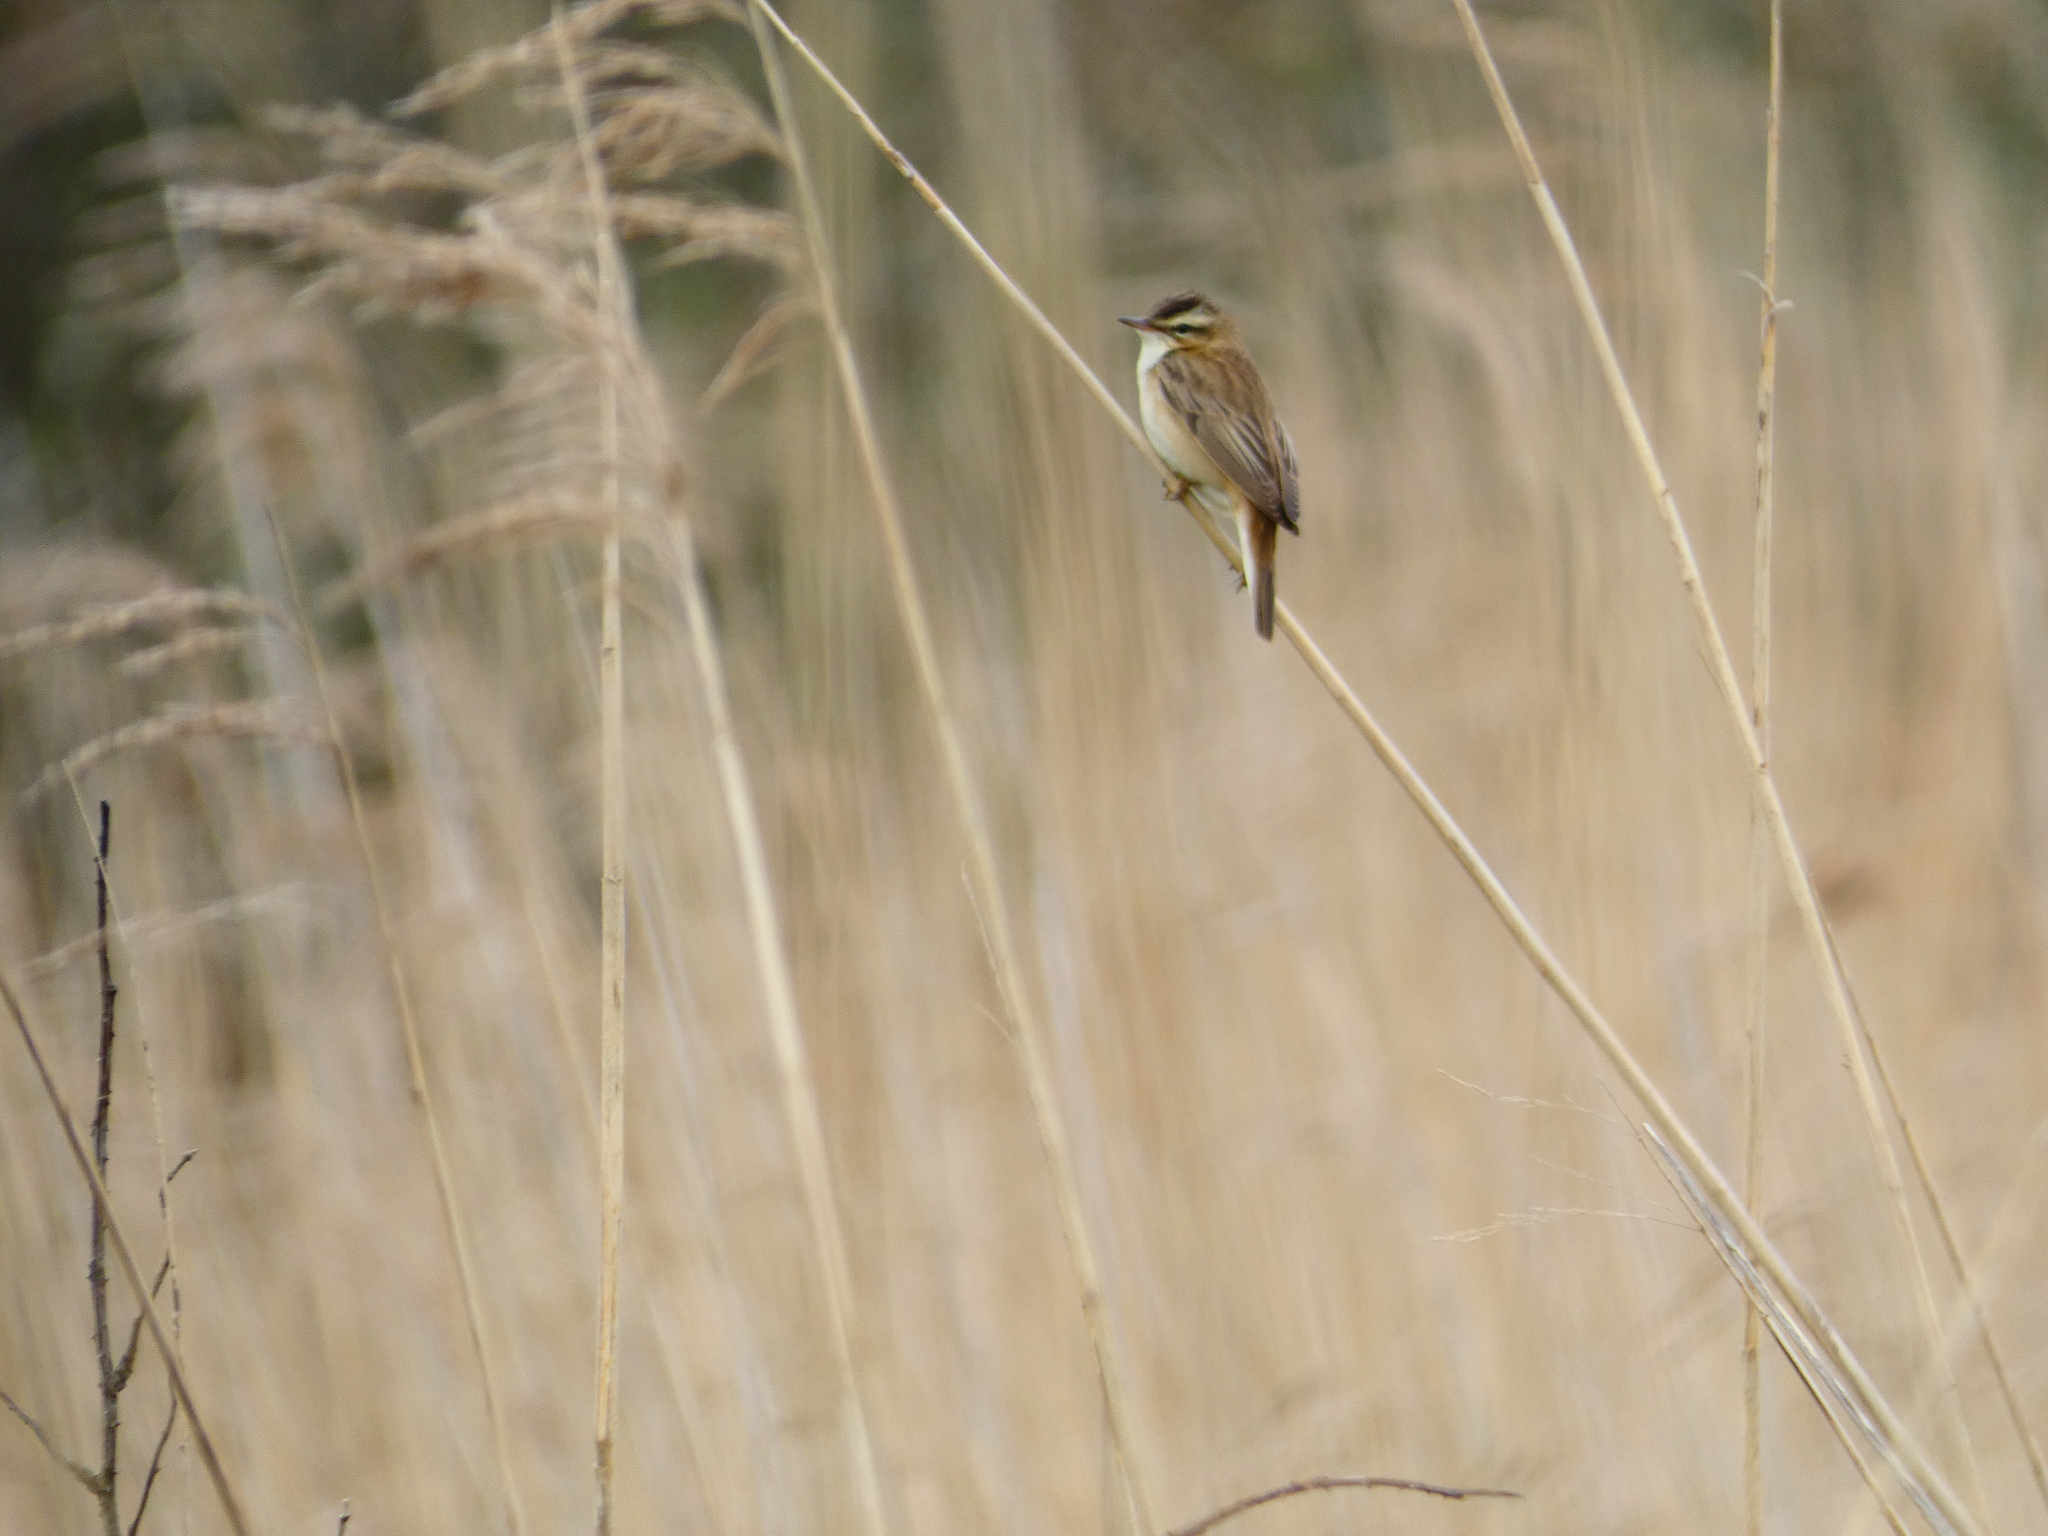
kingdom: Animalia
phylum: Chordata
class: Aves
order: Passeriformes
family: Acrocephalidae
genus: Acrocephalus
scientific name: Acrocephalus schoenobaenus
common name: Sedge warbler
